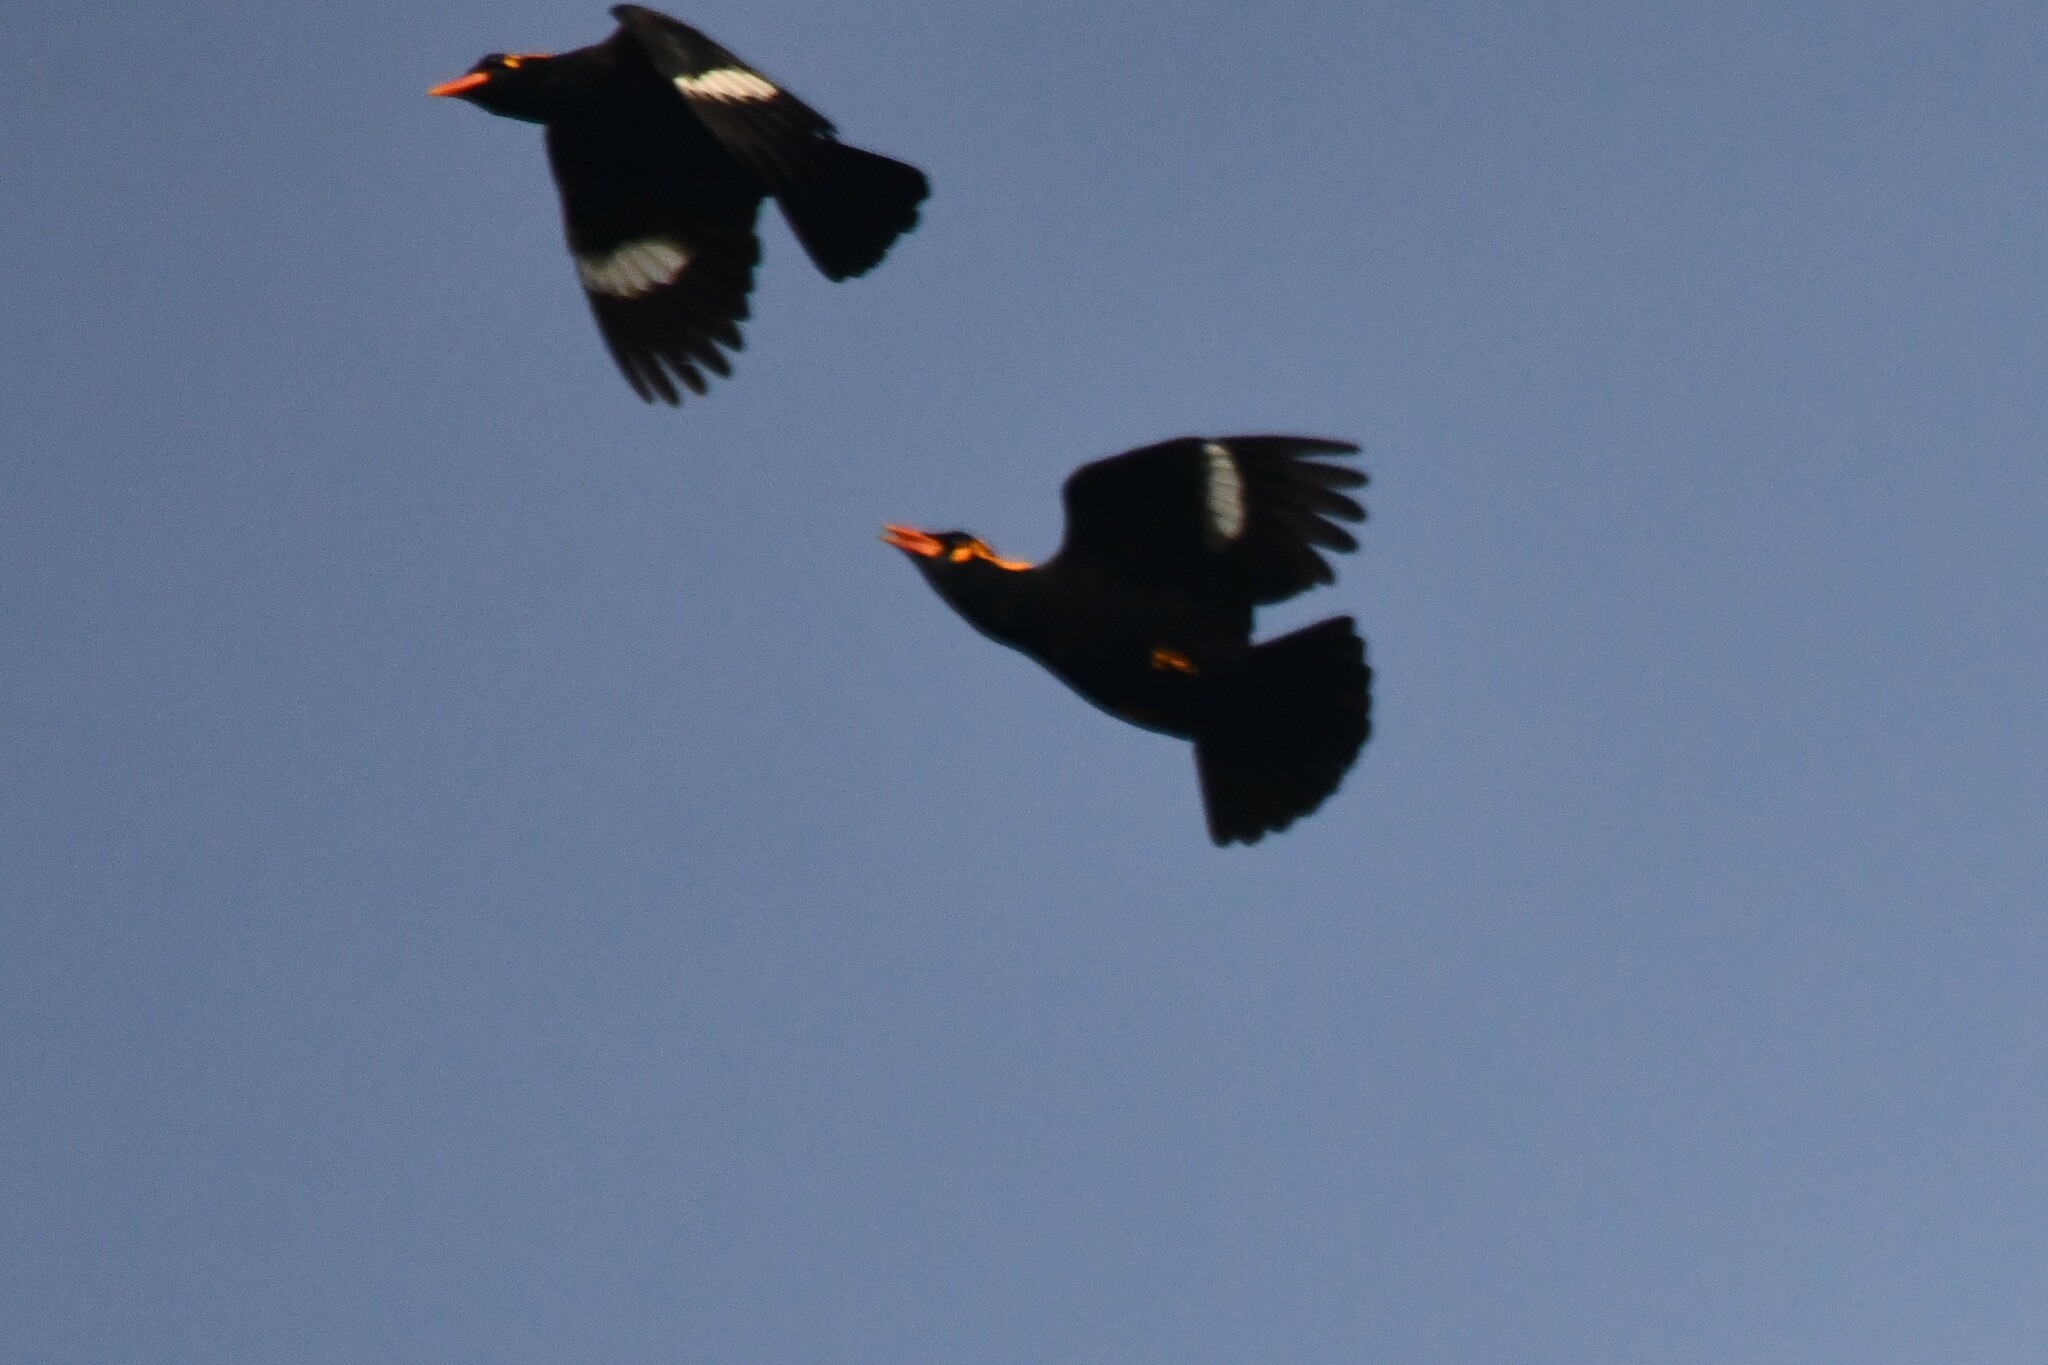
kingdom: Animalia
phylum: Chordata
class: Aves
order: Passeriformes
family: Sturnidae
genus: Gracula
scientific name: Gracula indica
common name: Southern hill myna
